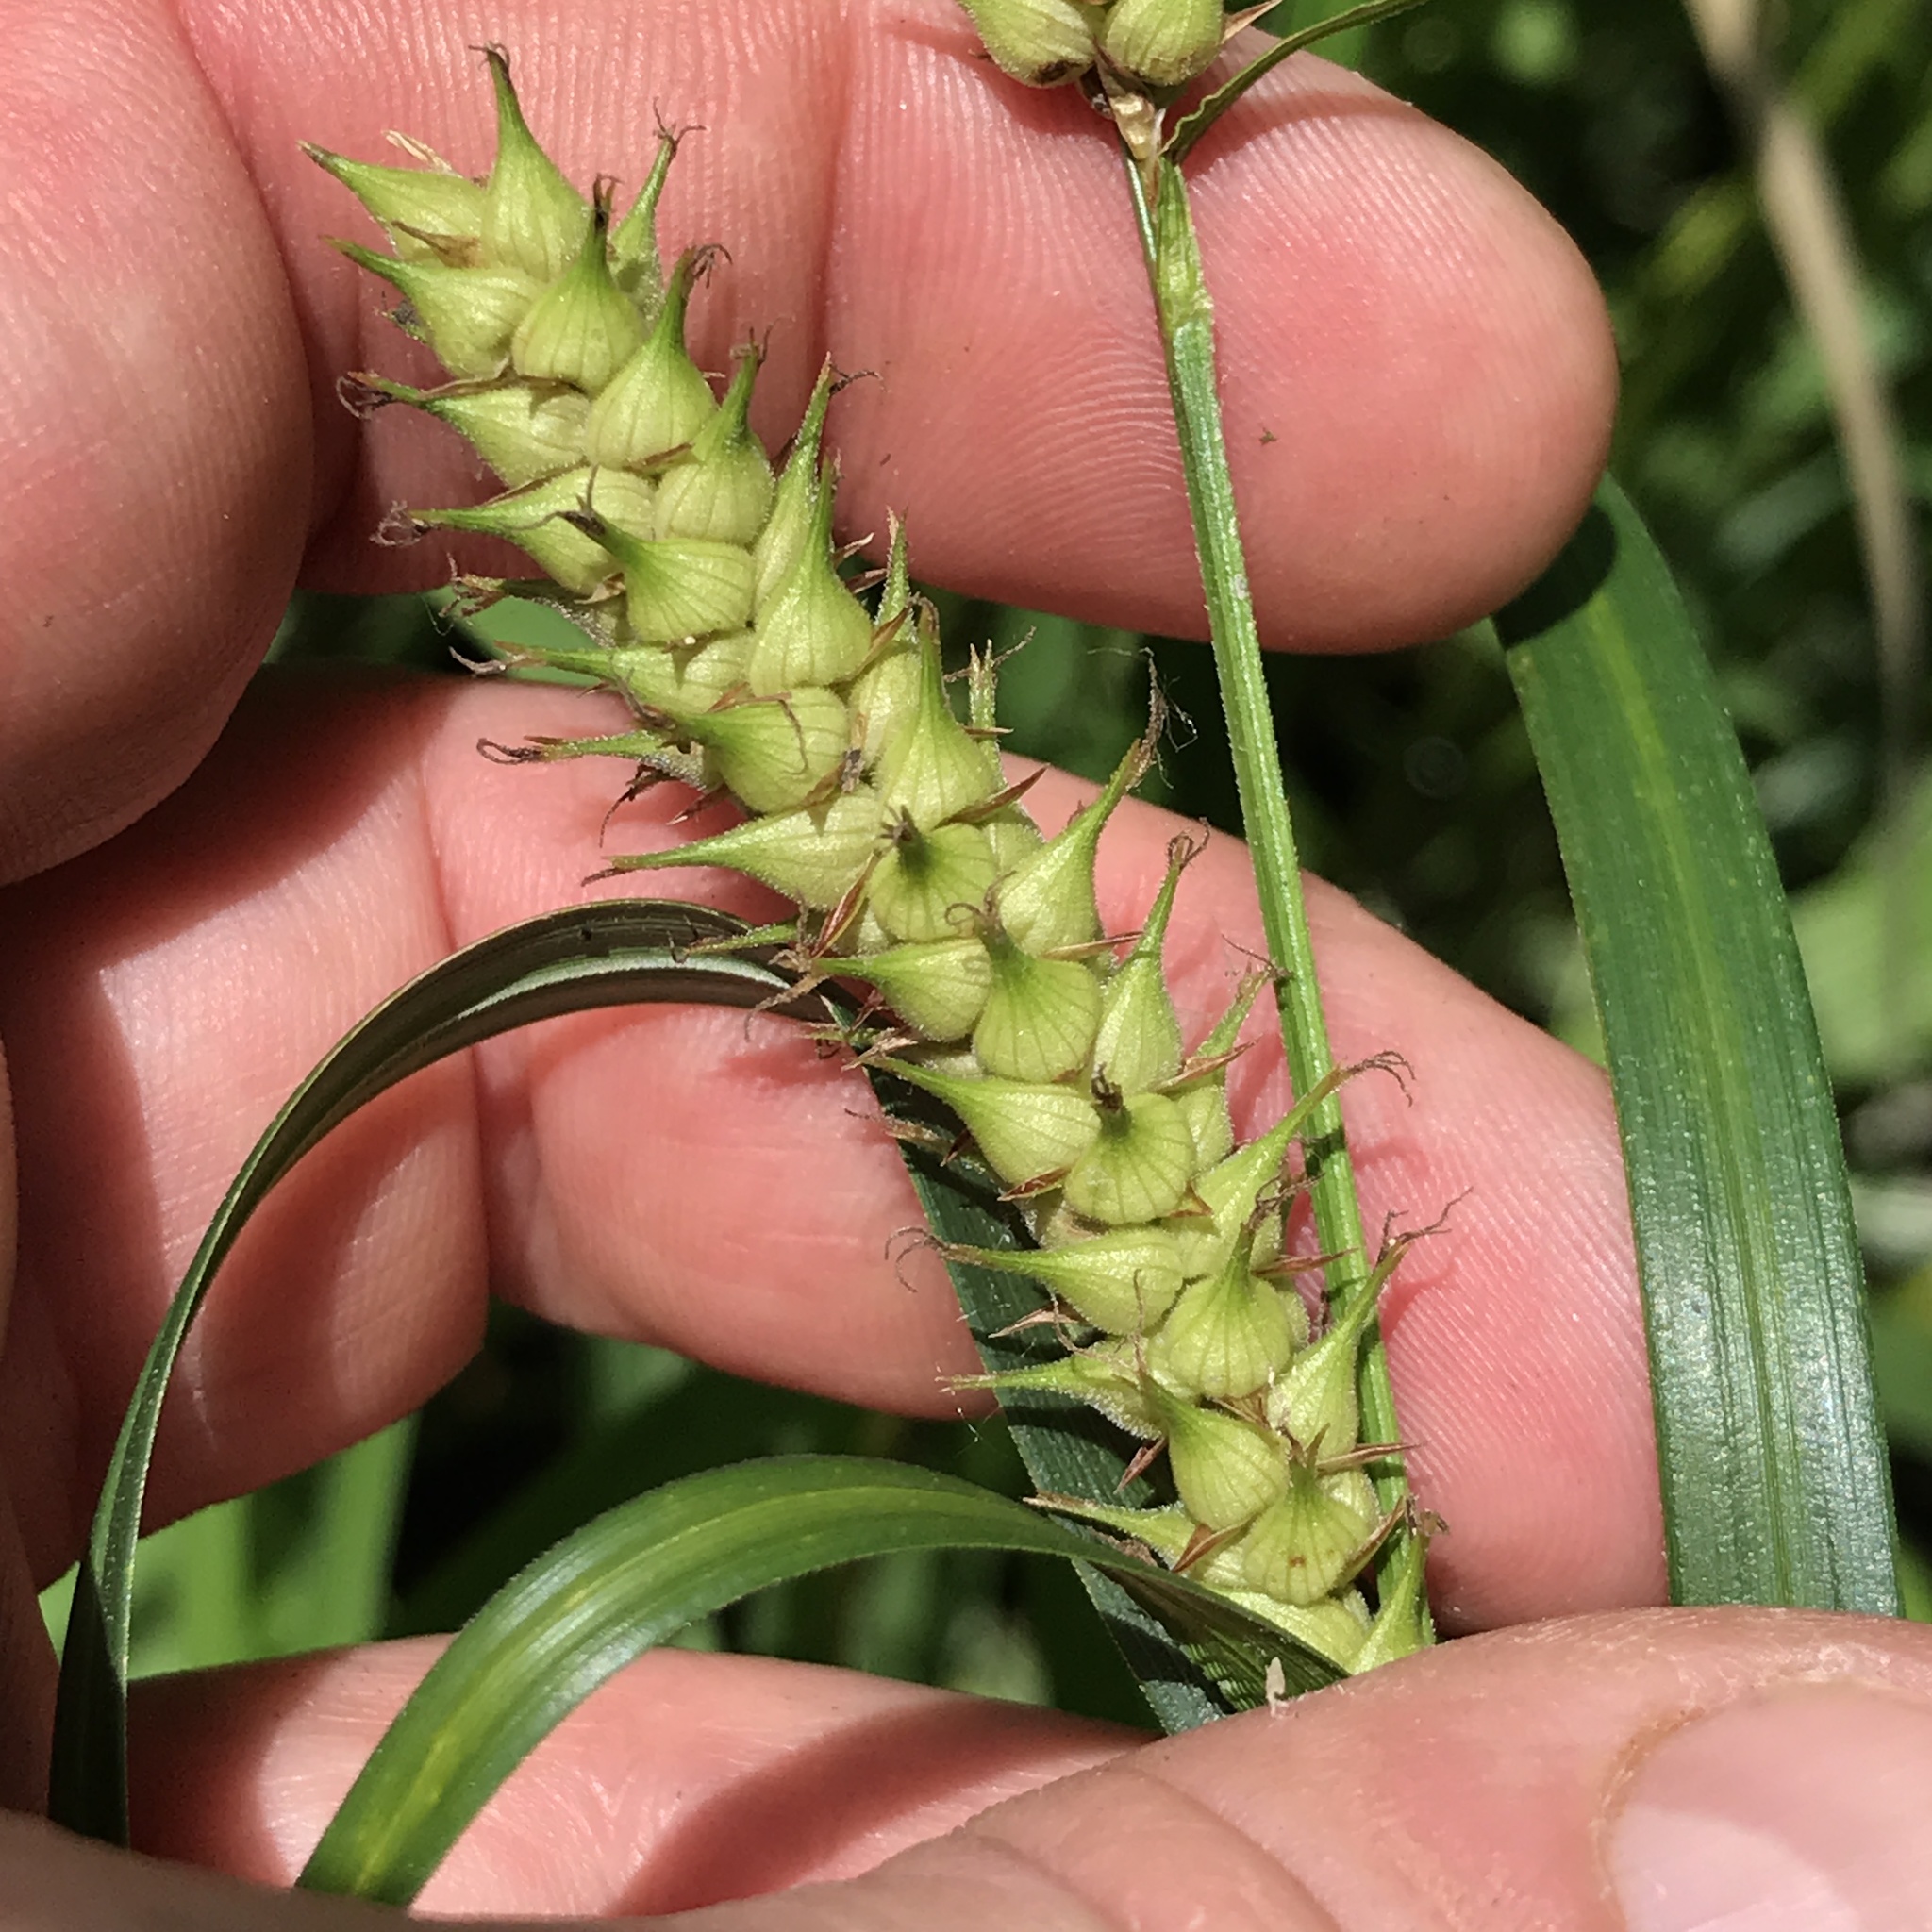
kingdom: Plantae
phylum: Tracheophyta
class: Liliopsida
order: Poales
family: Cyperaceae
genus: Carex
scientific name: Carex trichocarpa
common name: Hairy-fruited lake sedge
